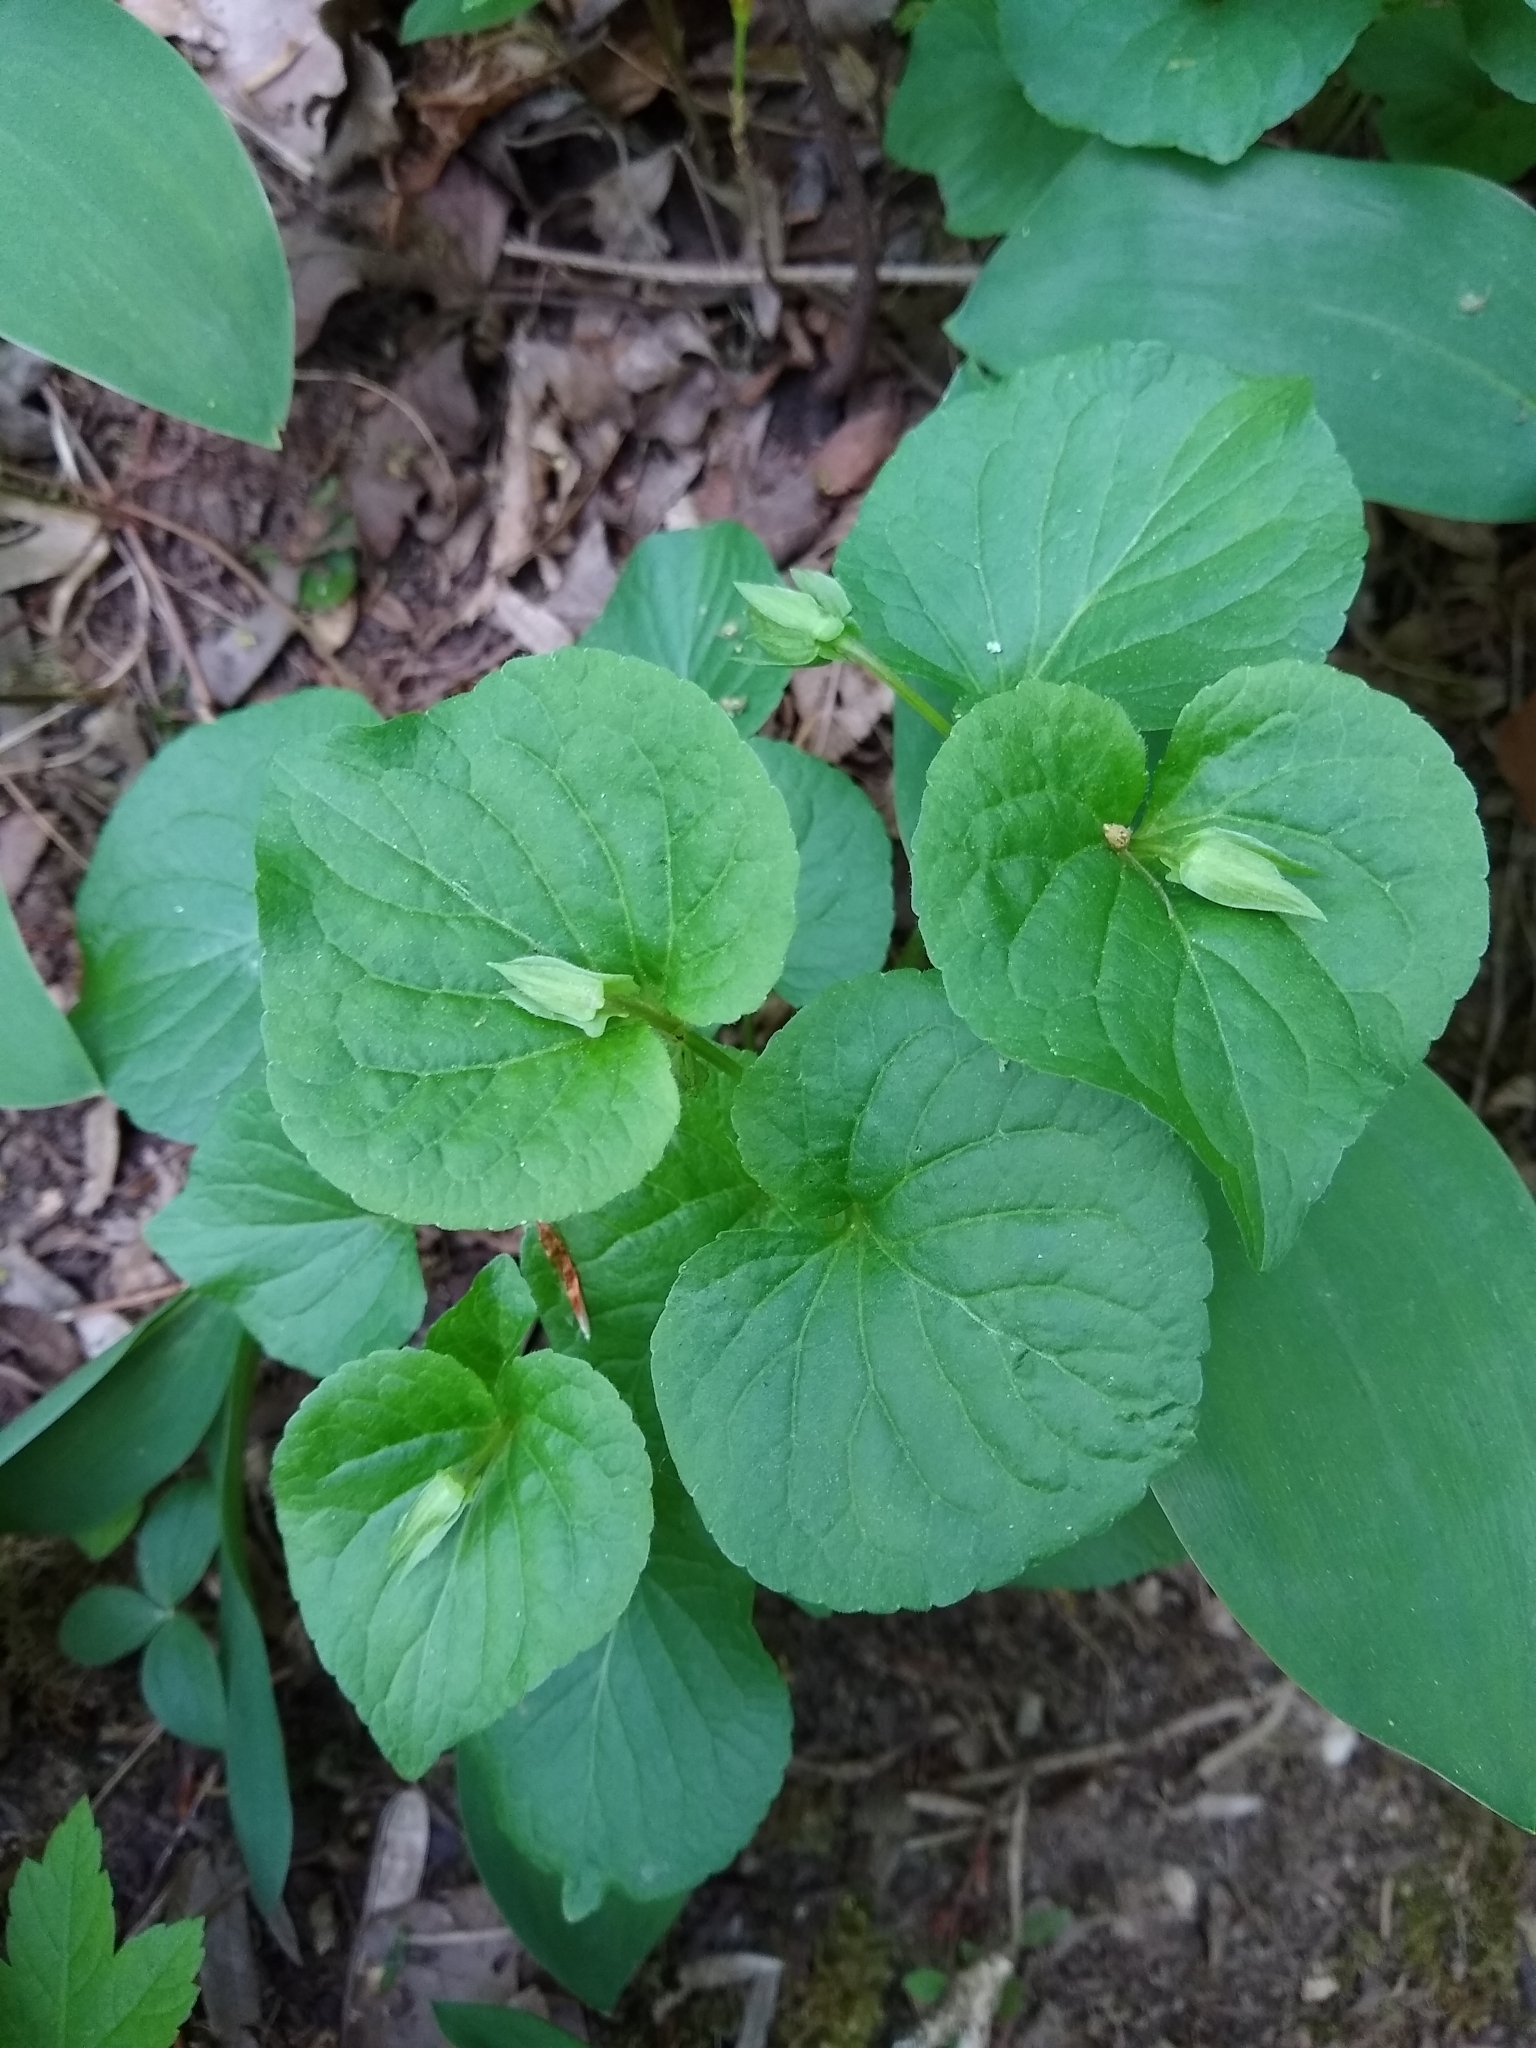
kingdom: Plantae
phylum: Tracheophyta
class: Magnoliopsida
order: Malpighiales
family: Violaceae
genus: Viola
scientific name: Viola mirabilis
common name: Wonder violet
